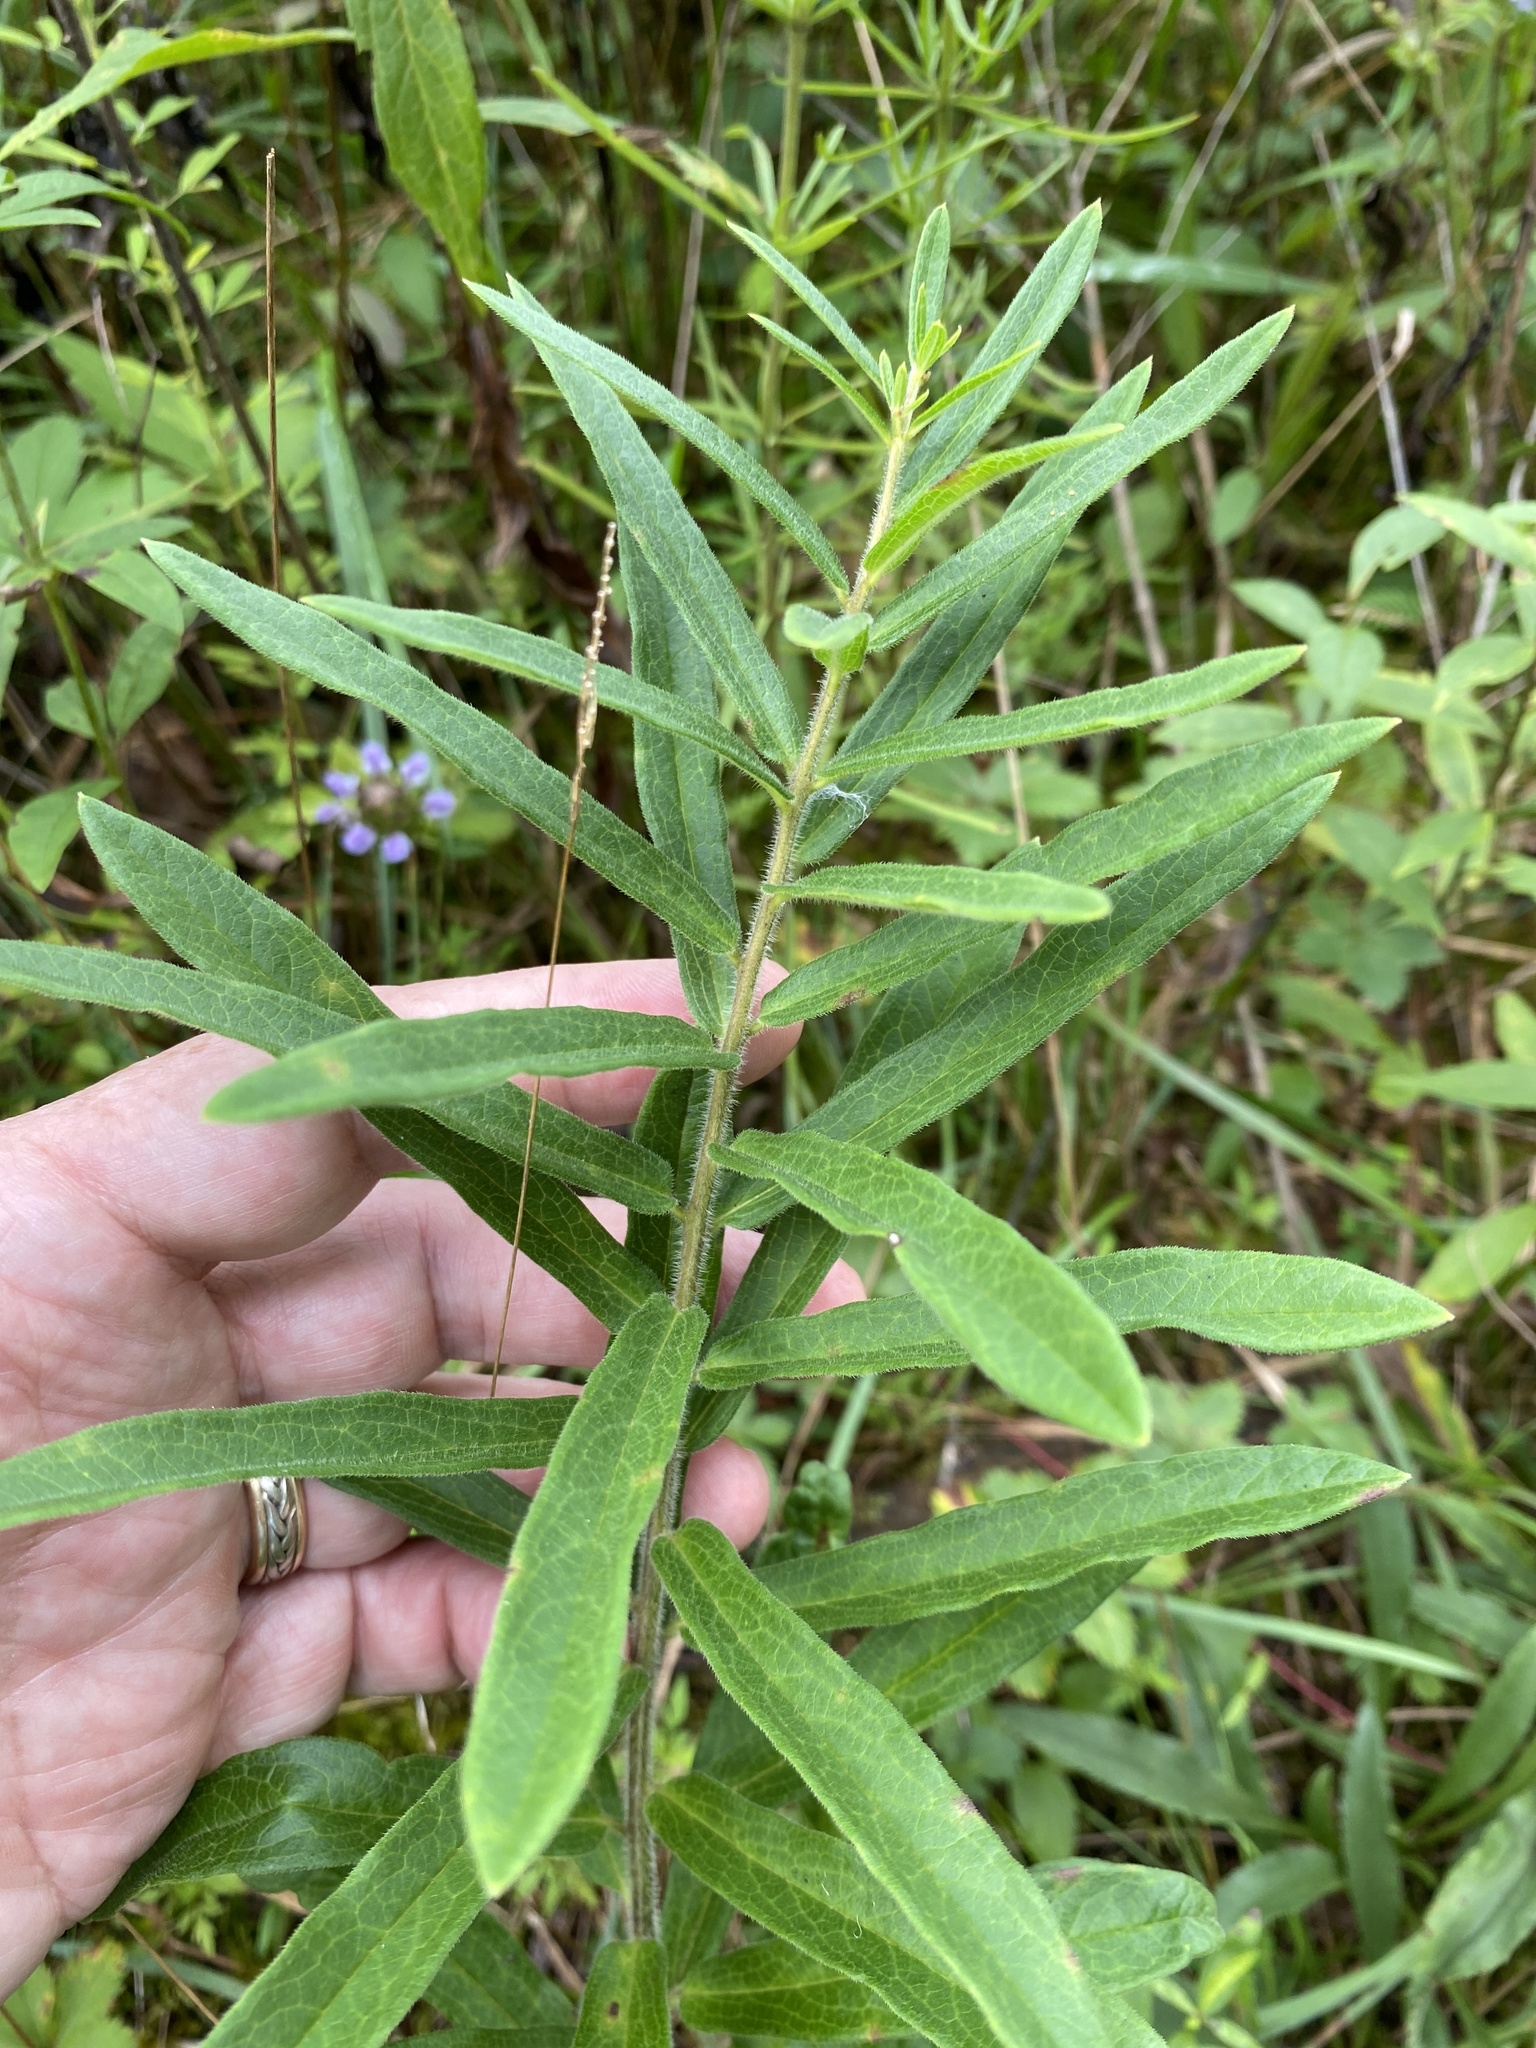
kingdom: Plantae
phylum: Tracheophyta
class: Magnoliopsida
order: Gentianales
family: Apocynaceae
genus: Asclepias
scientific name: Asclepias tuberosa
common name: Butterfly milkweed
